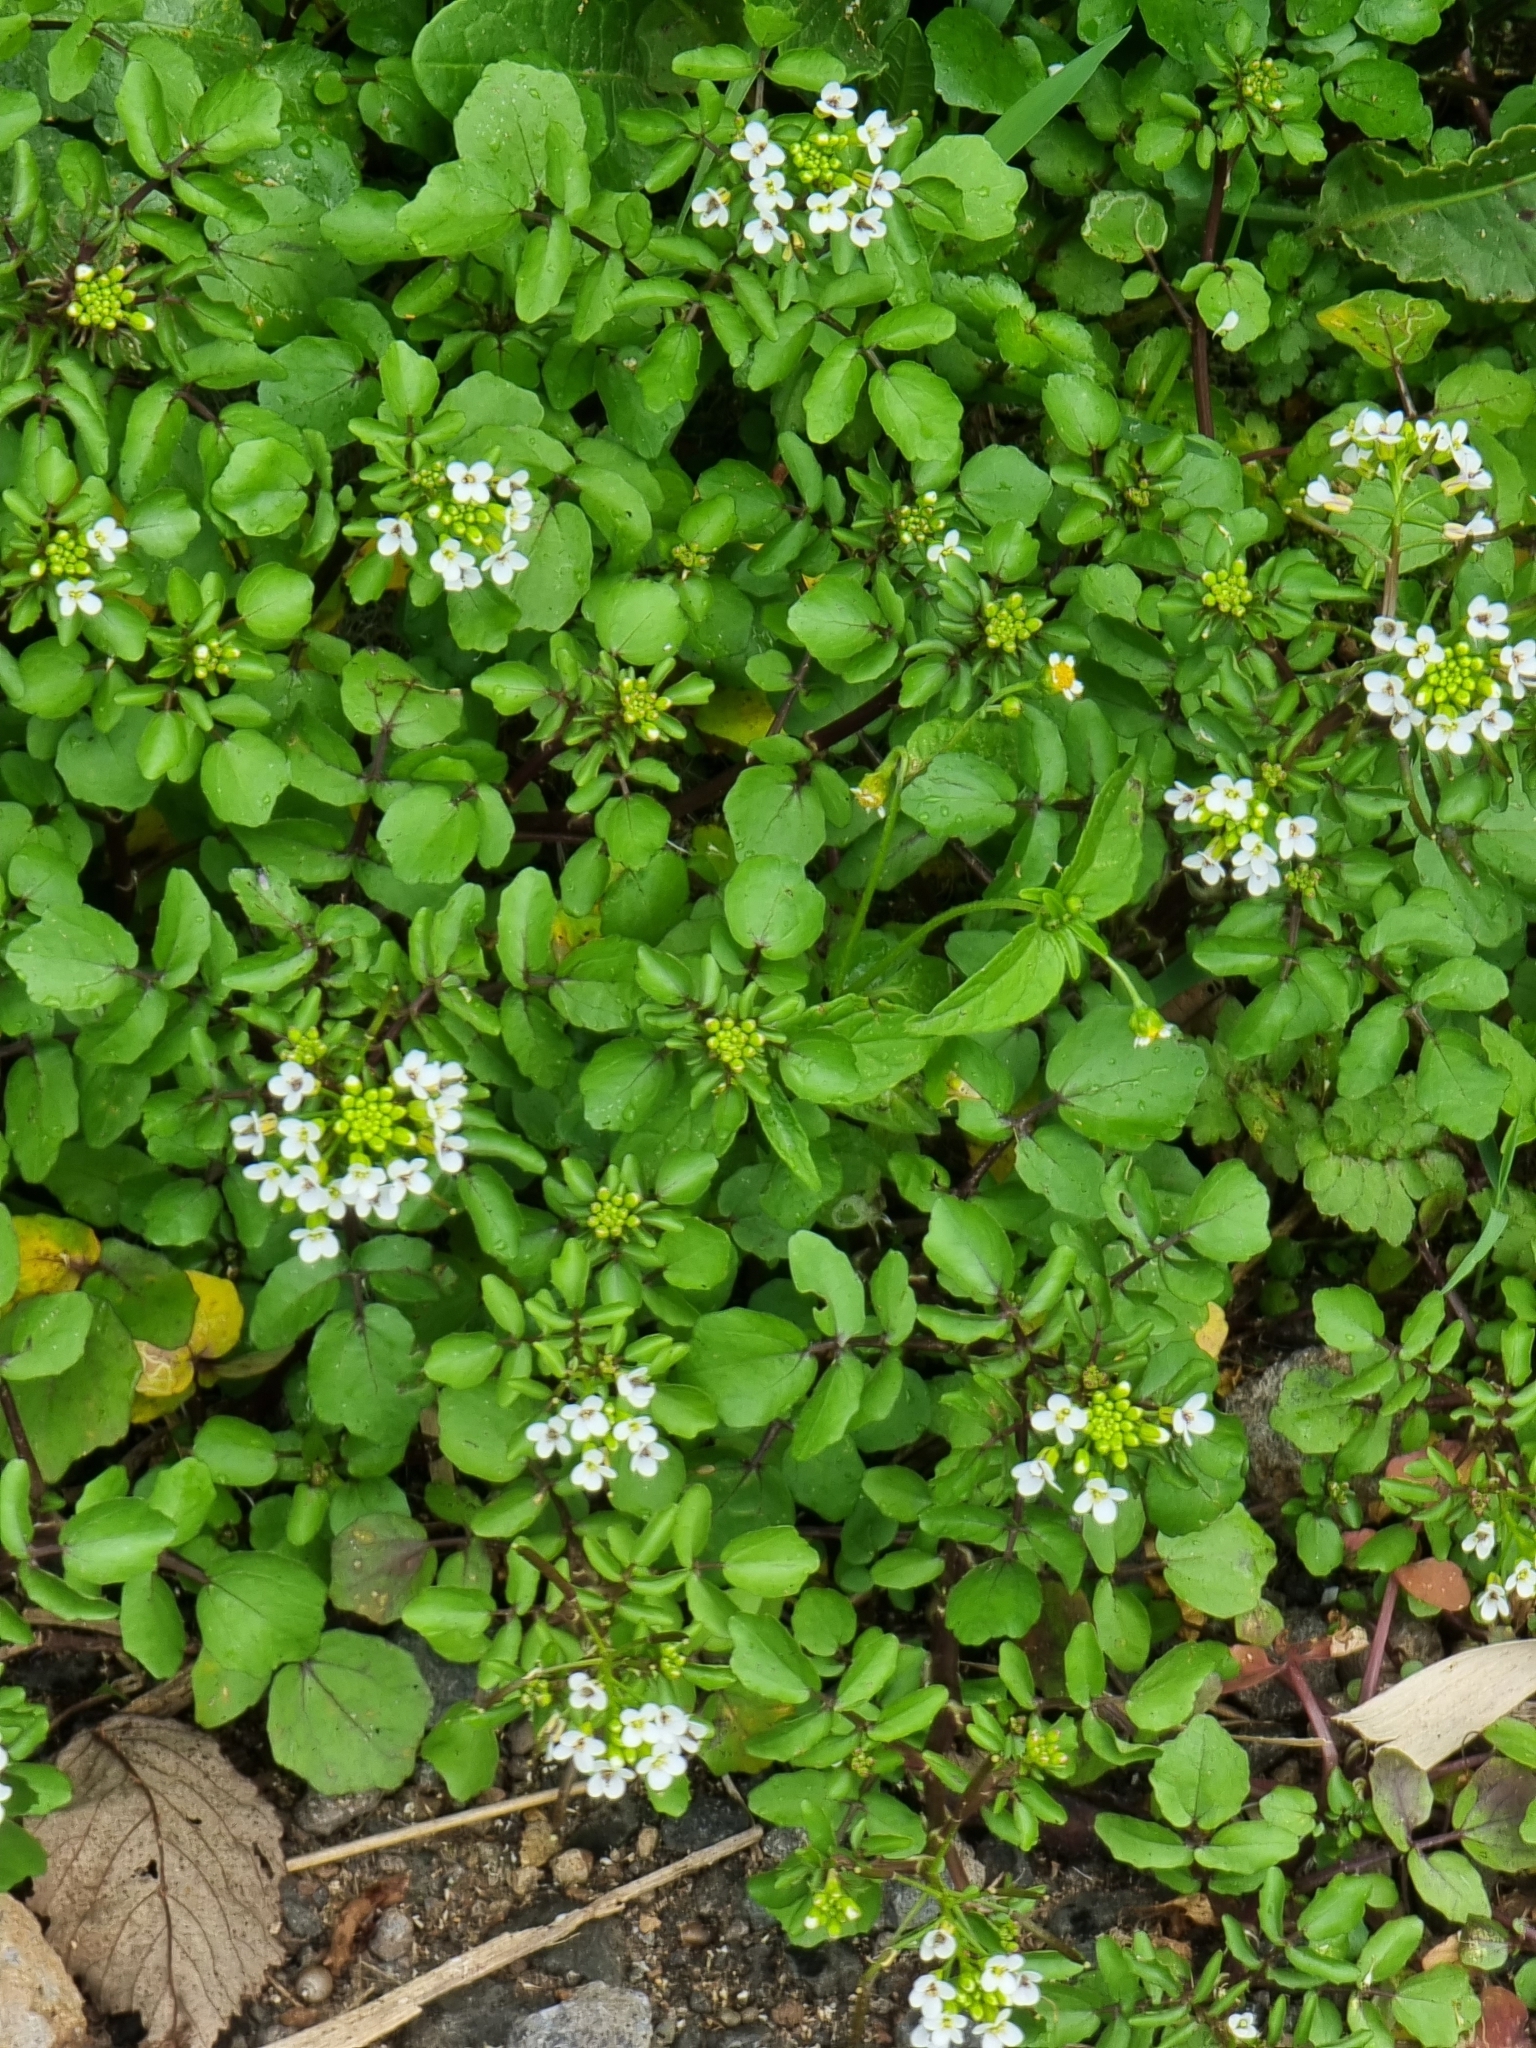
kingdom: Plantae
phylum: Tracheophyta
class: Magnoliopsida
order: Brassicales
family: Brassicaceae
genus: Nasturtium
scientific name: Nasturtium sterile
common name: Yellowcress
